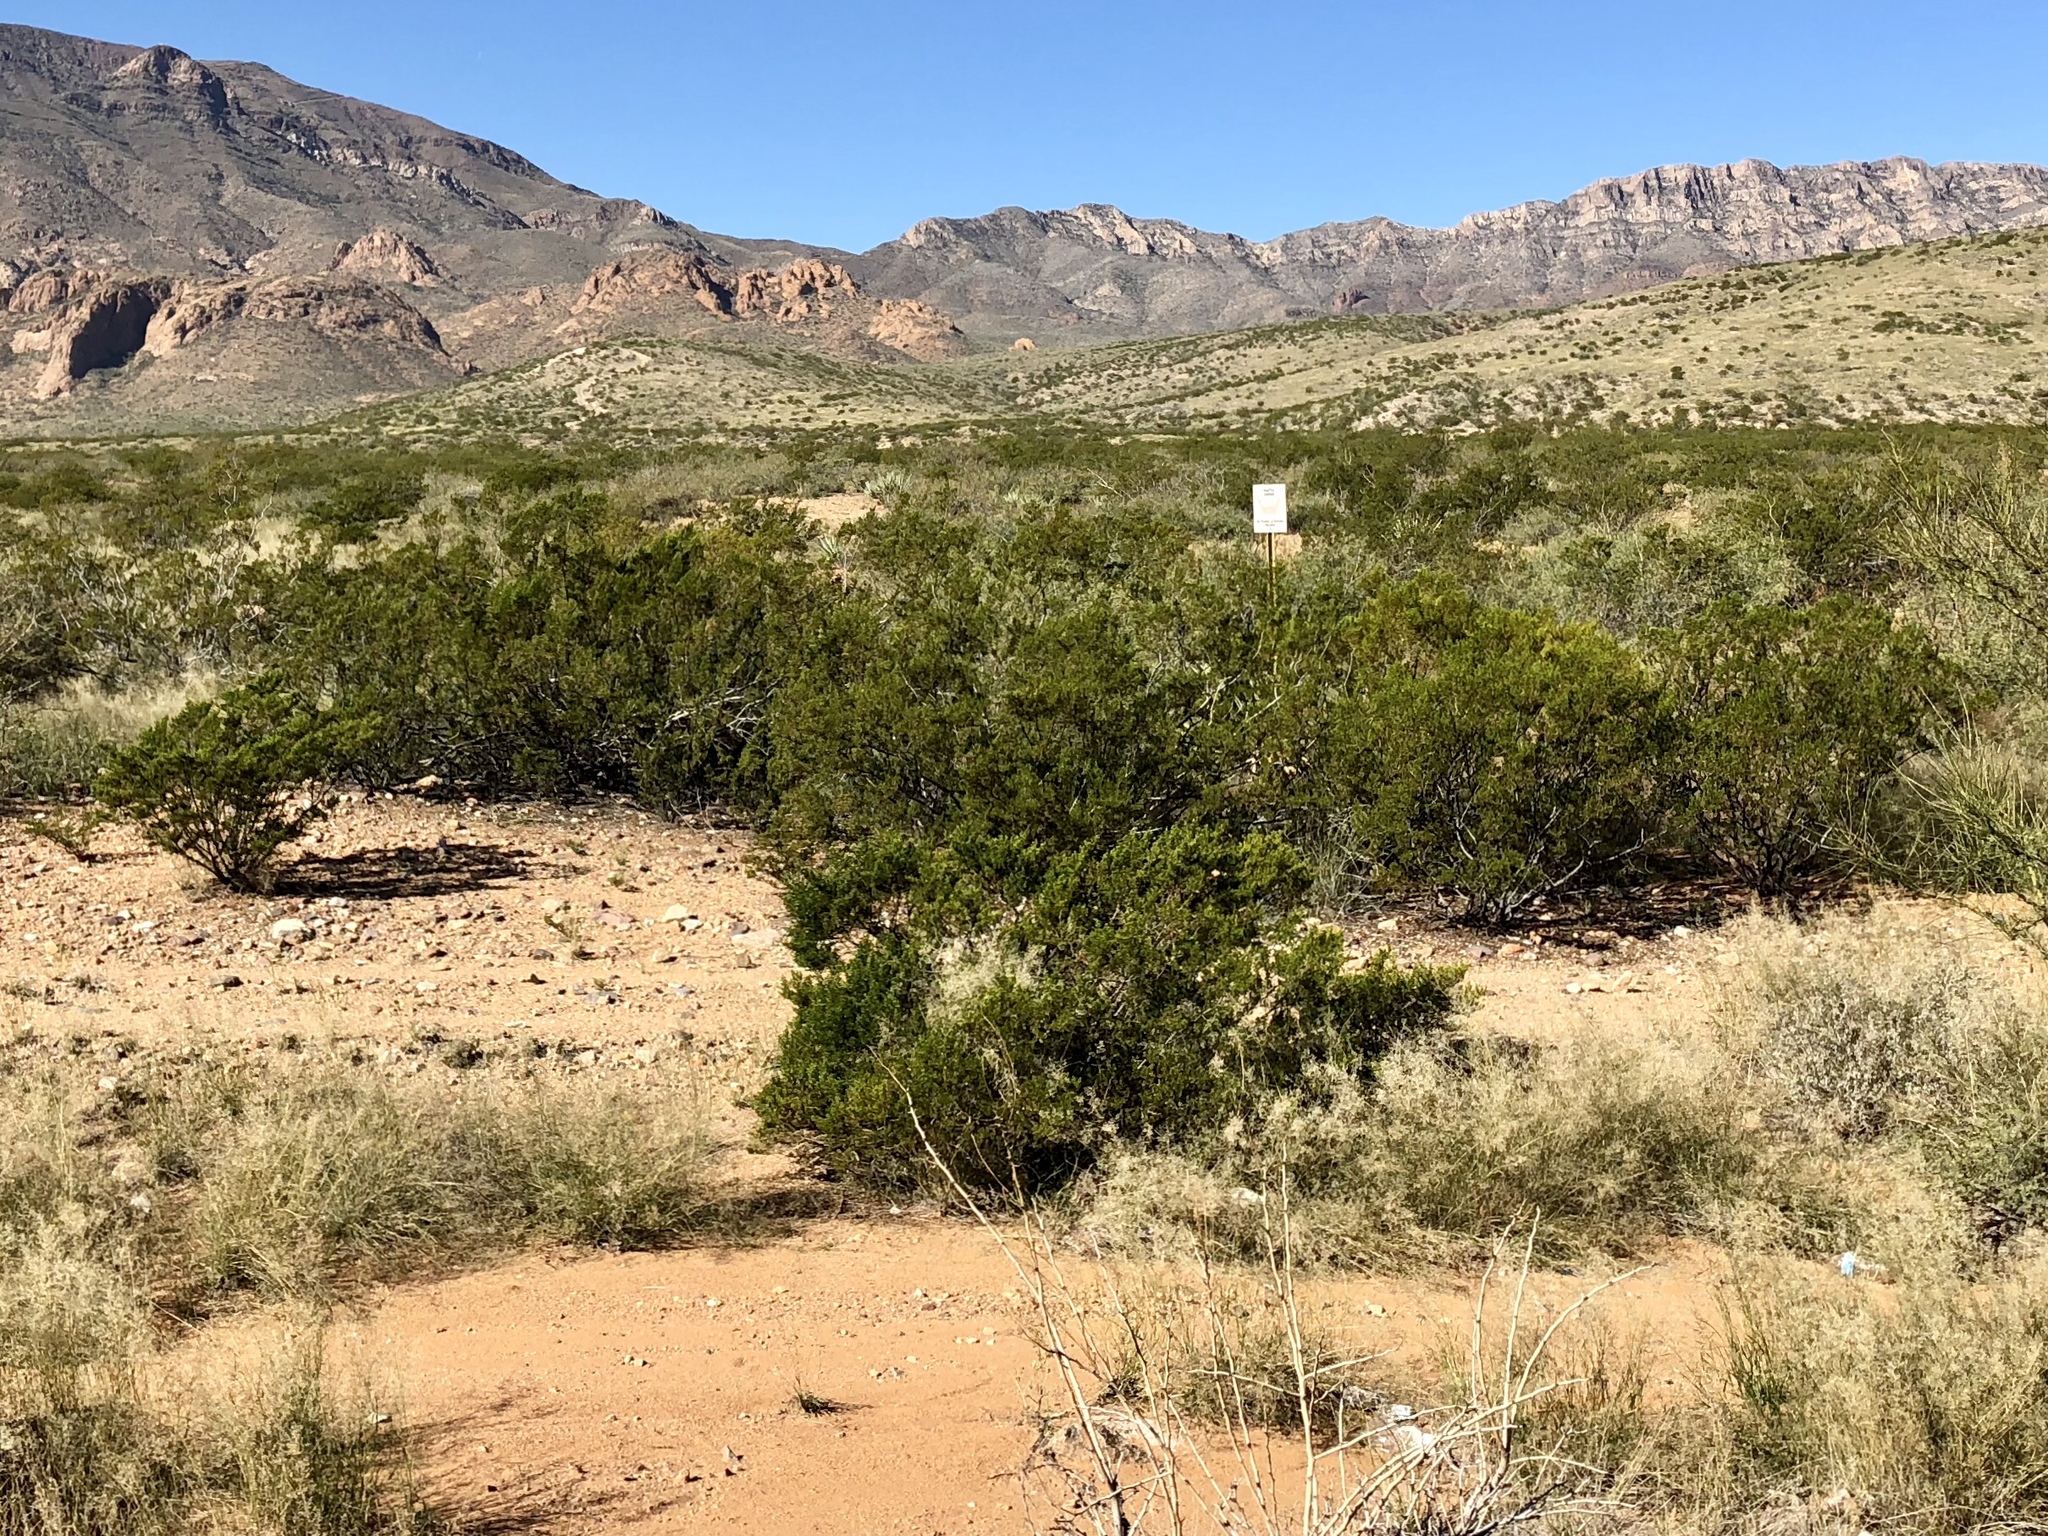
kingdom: Plantae
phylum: Tracheophyta
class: Magnoliopsida
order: Zygophyllales
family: Zygophyllaceae
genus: Larrea
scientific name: Larrea tridentata
